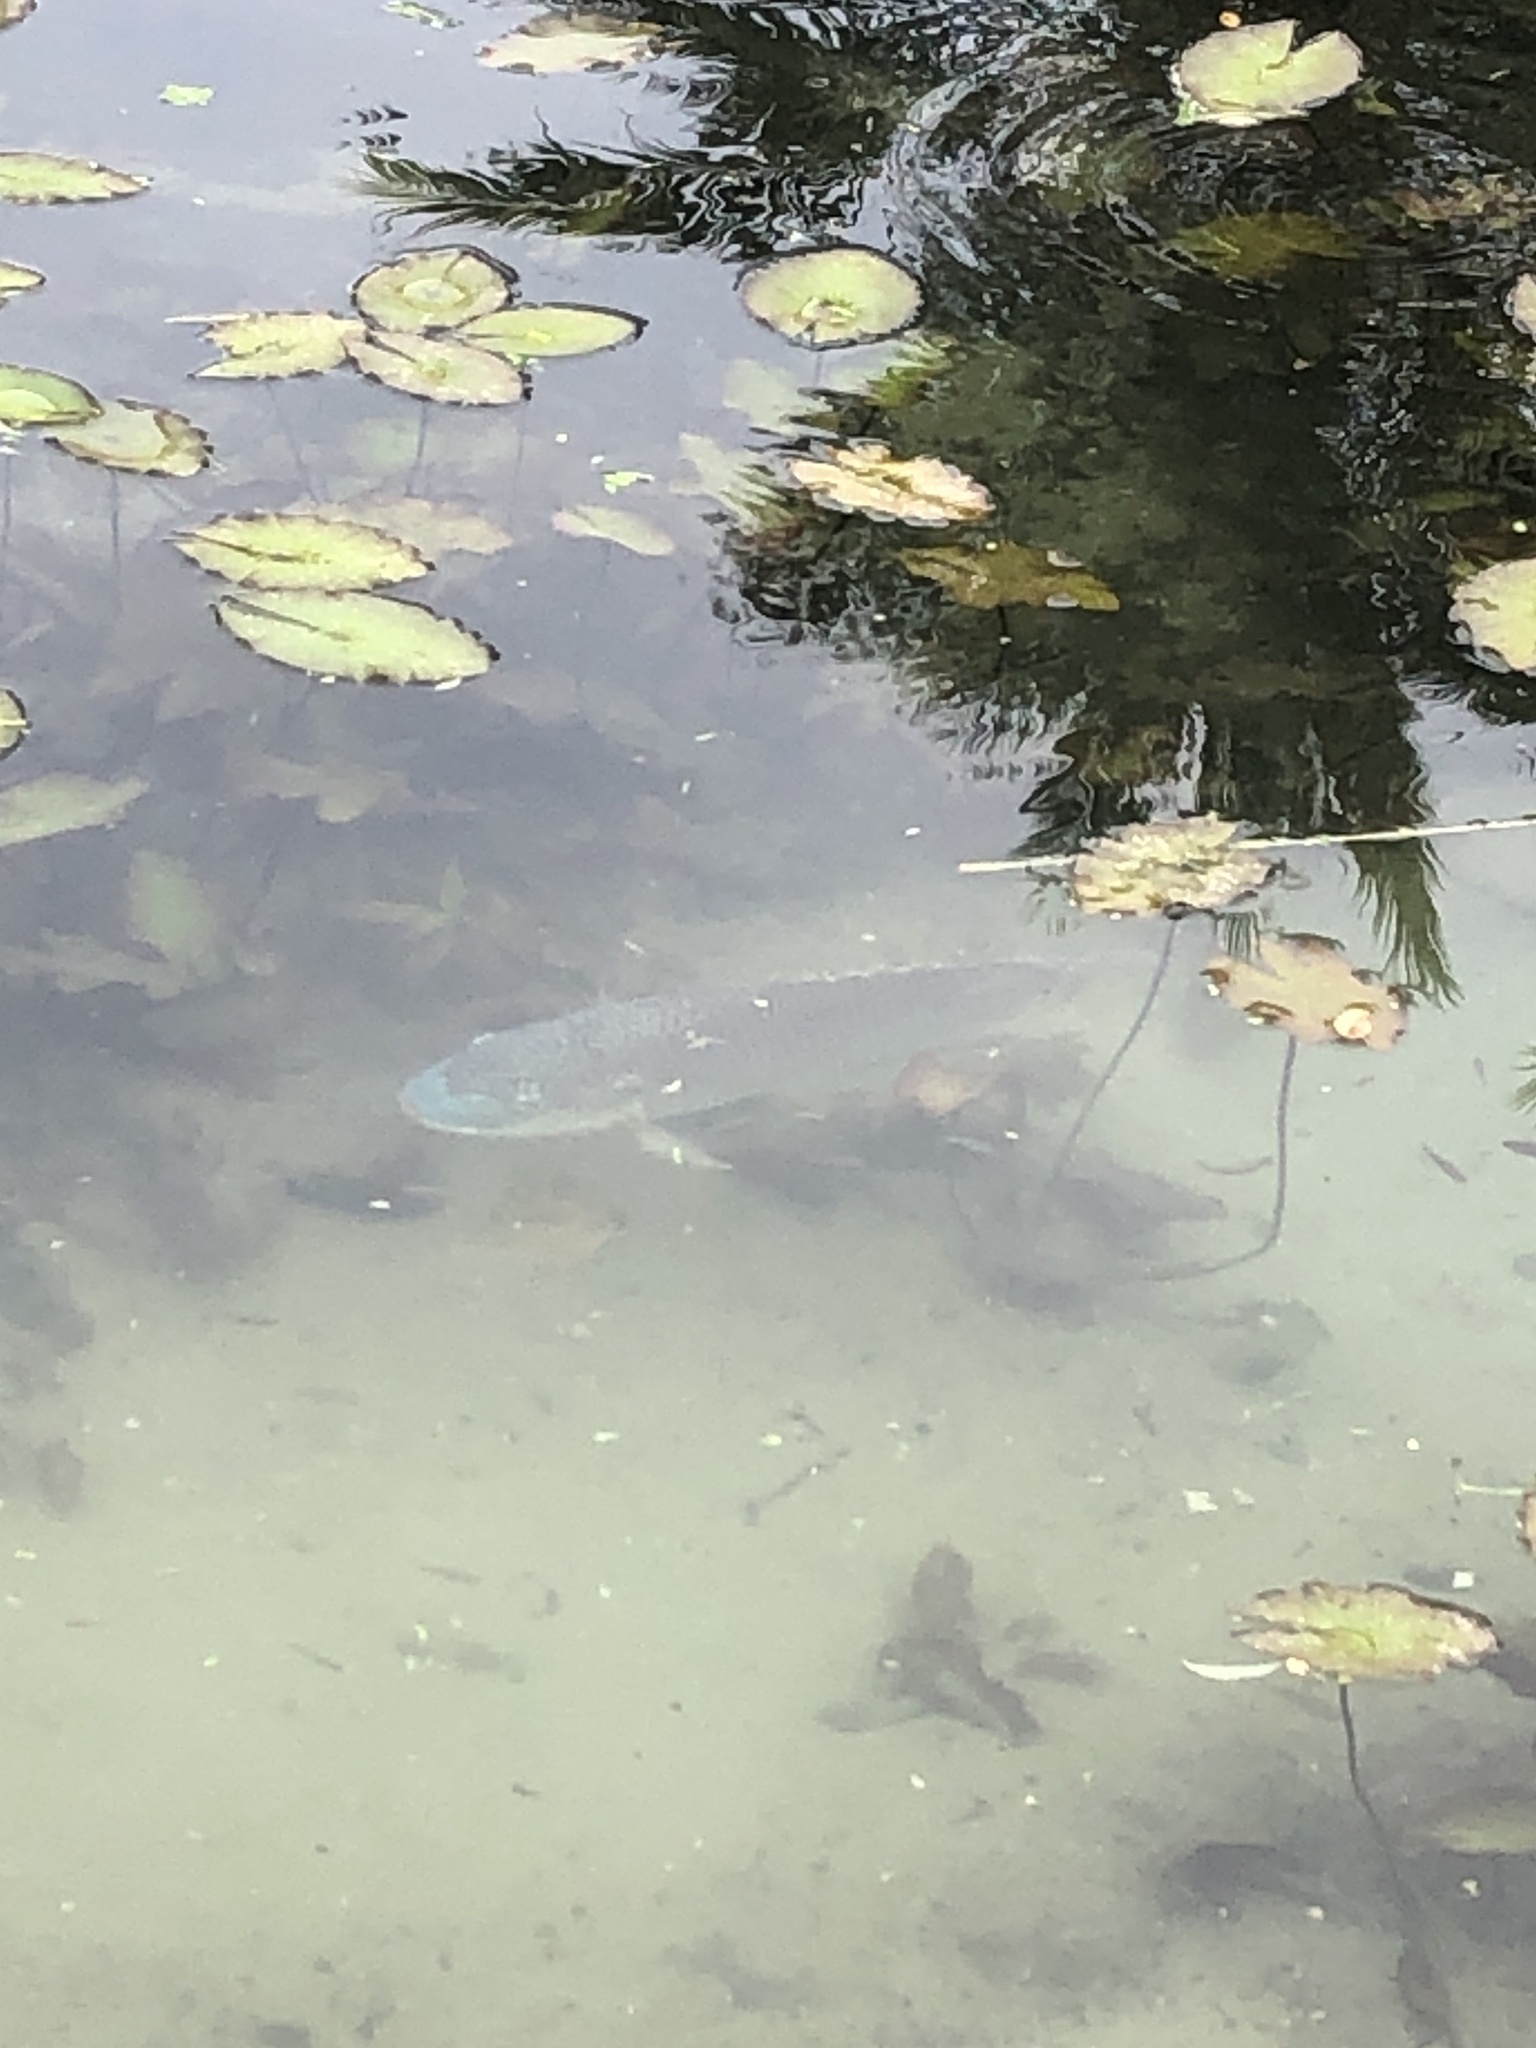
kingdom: Animalia
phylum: Chordata
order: Perciformes
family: Cichlidae
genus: Oreochromis
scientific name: Oreochromis aureus
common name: Blue tilapia
